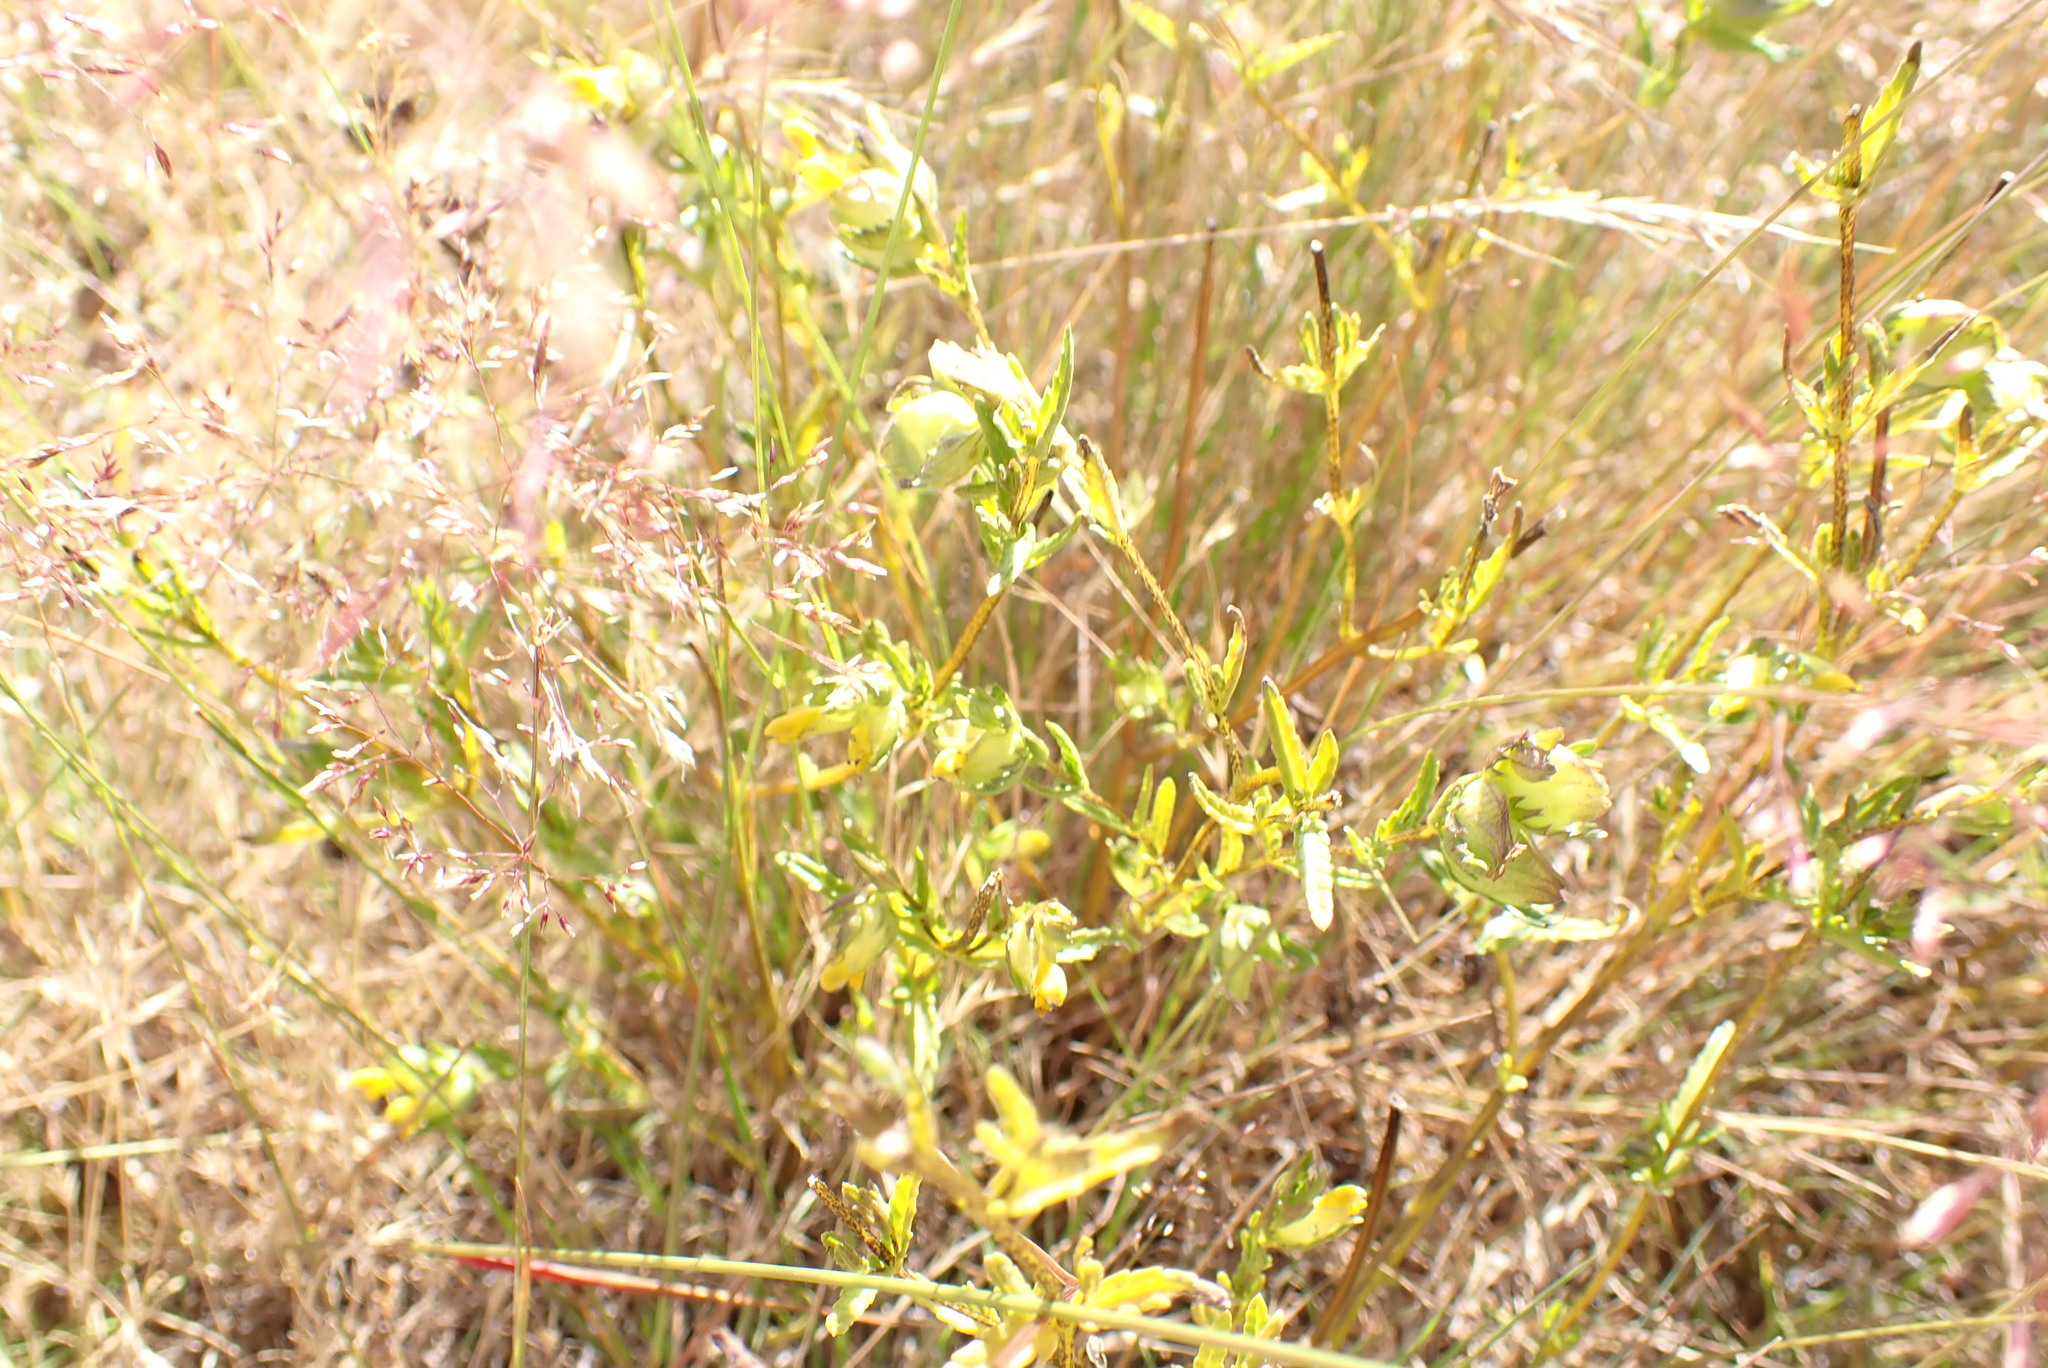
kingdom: Plantae
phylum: Tracheophyta
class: Magnoliopsida
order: Lamiales
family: Orobanchaceae
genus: Rhinanthus
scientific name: Rhinanthus minor
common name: Yellow-rattle
